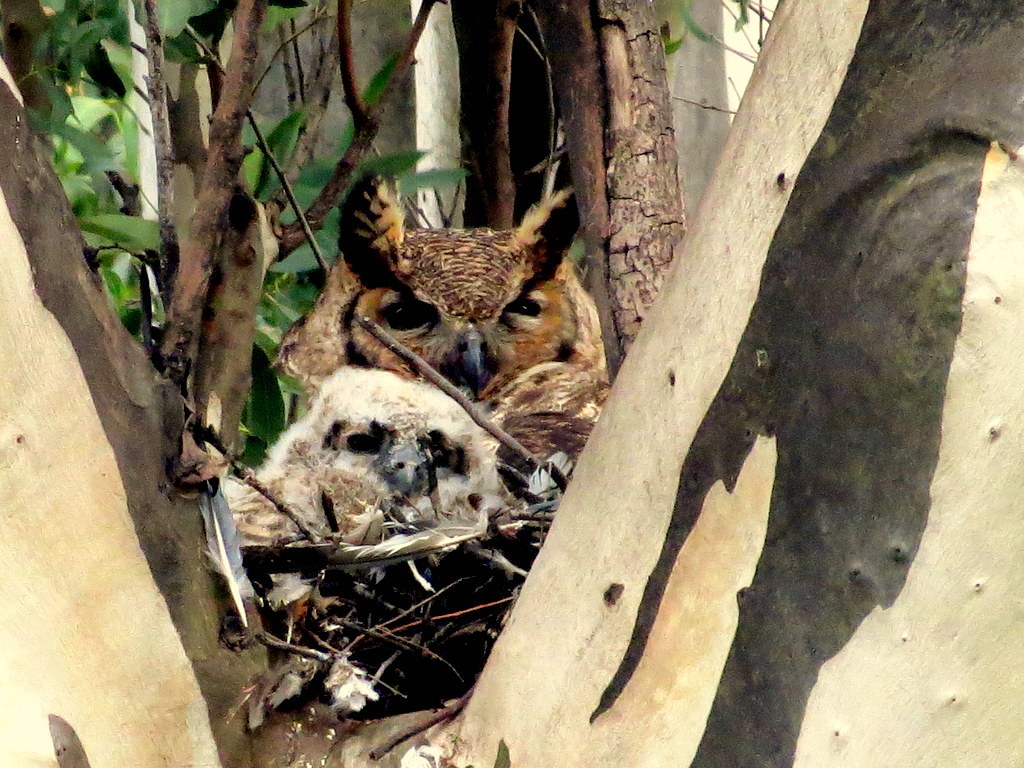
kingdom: Animalia
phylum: Chordata
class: Aves
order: Strigiformes
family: Strigidae
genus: Bubo
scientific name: Bubo virginianus
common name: Great horned owl
